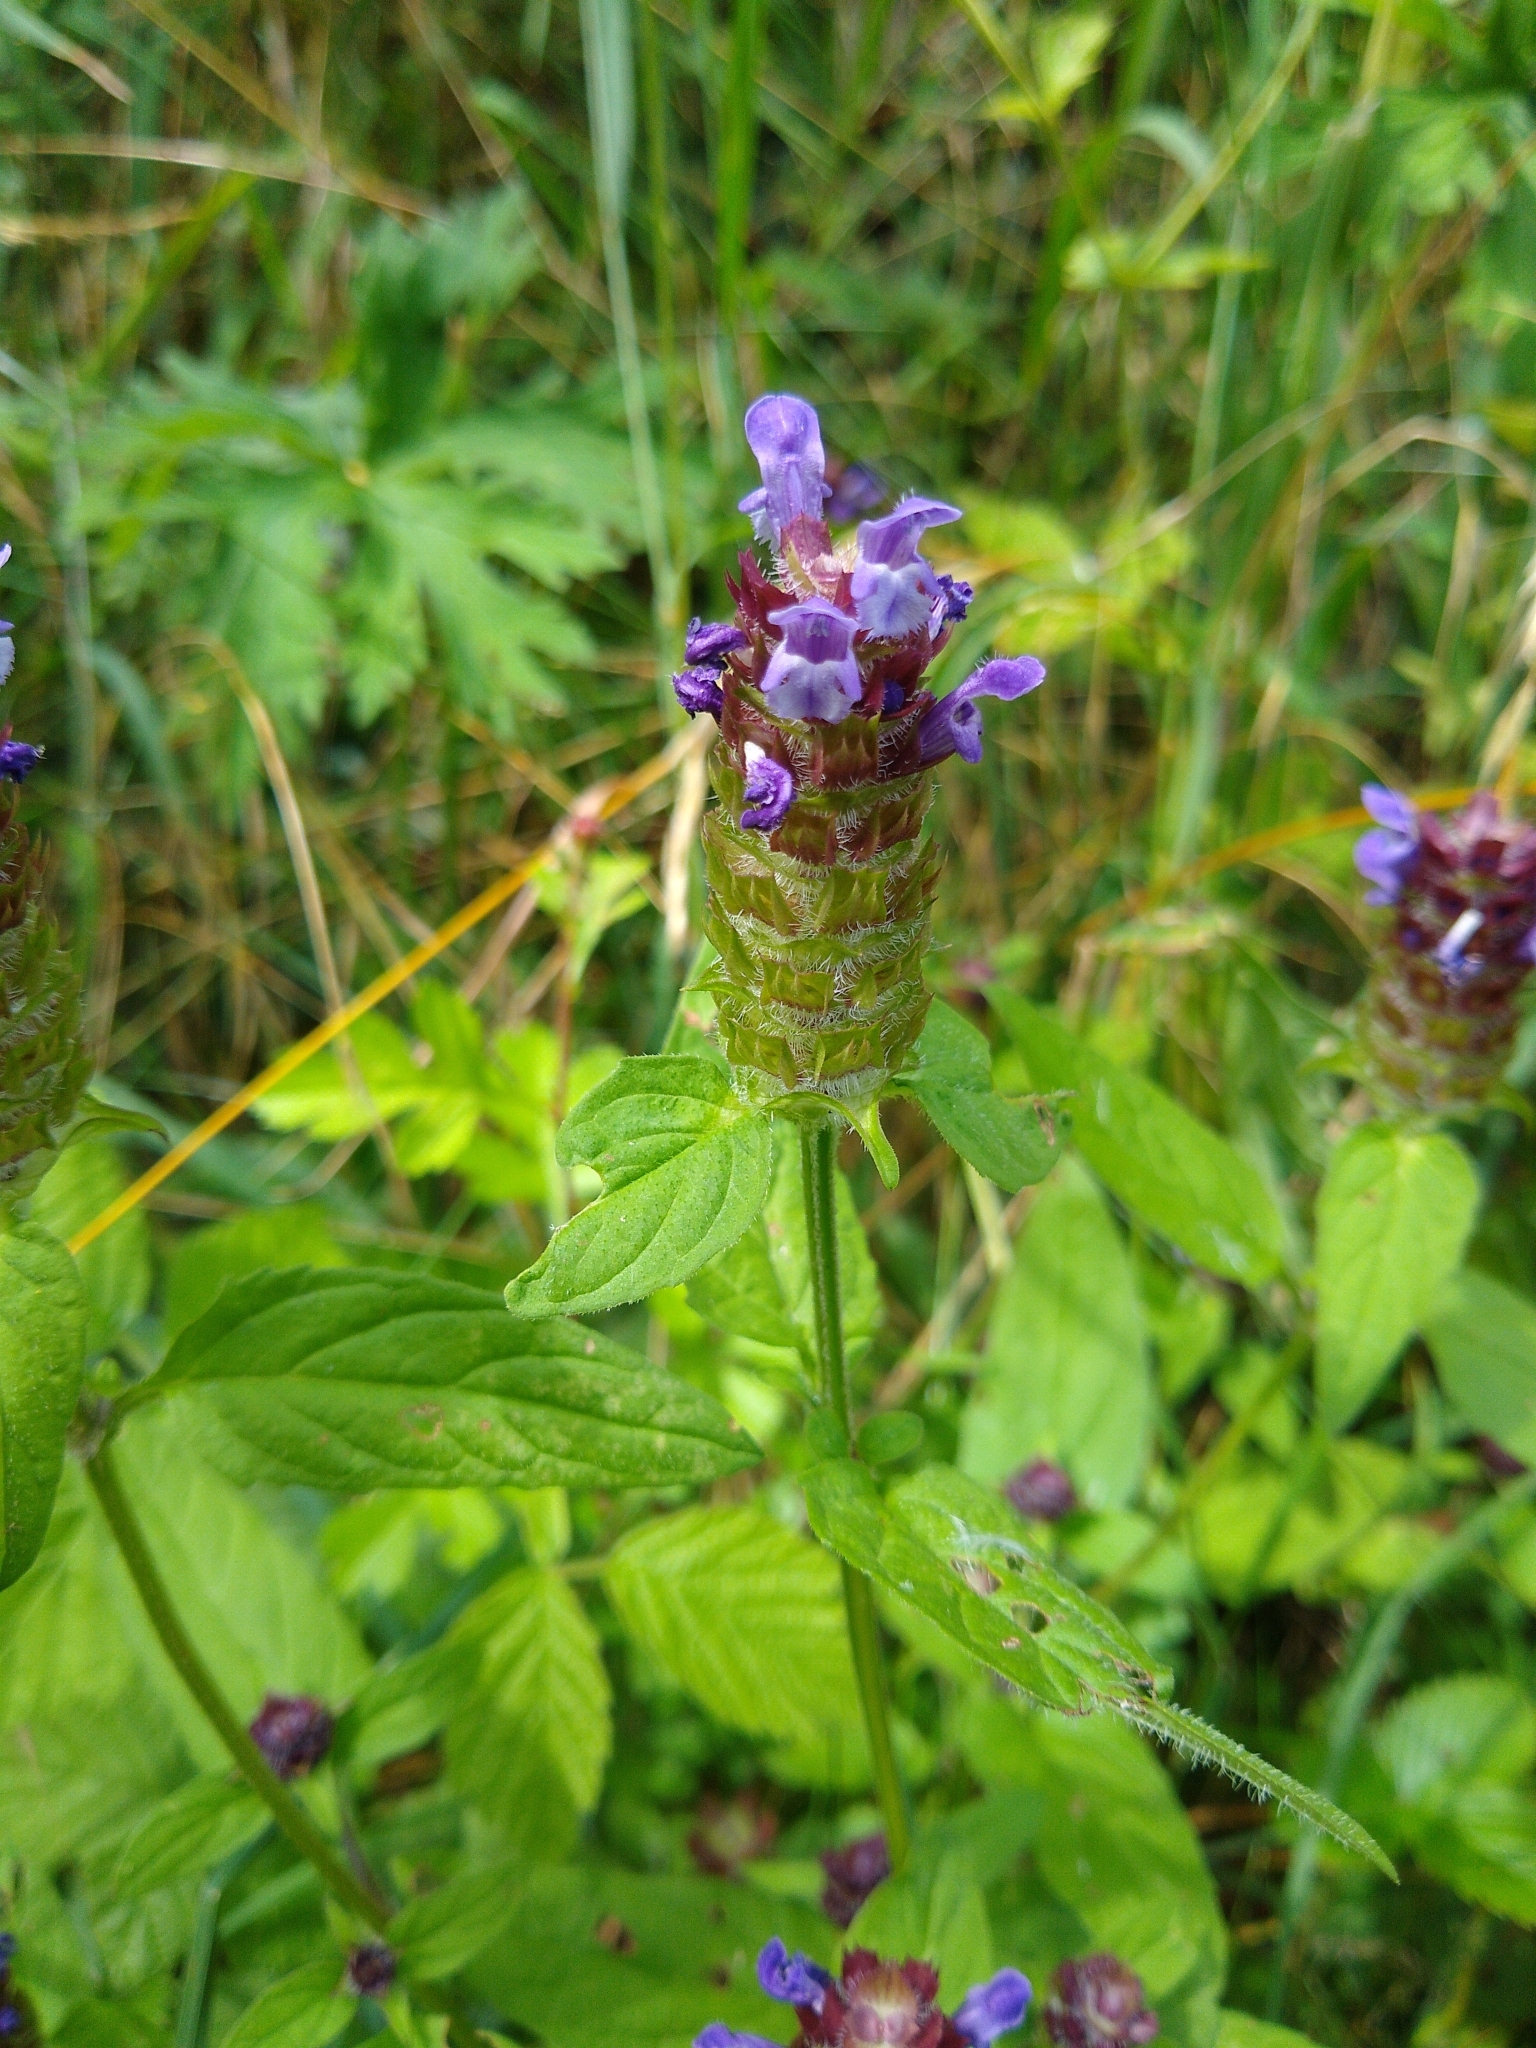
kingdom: Plantae
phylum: Tracheophyta
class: Magnoliopsida
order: Lamiales
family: Lamiaceae
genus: Prunella
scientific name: Prunella vulgaris
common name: Heal-all
